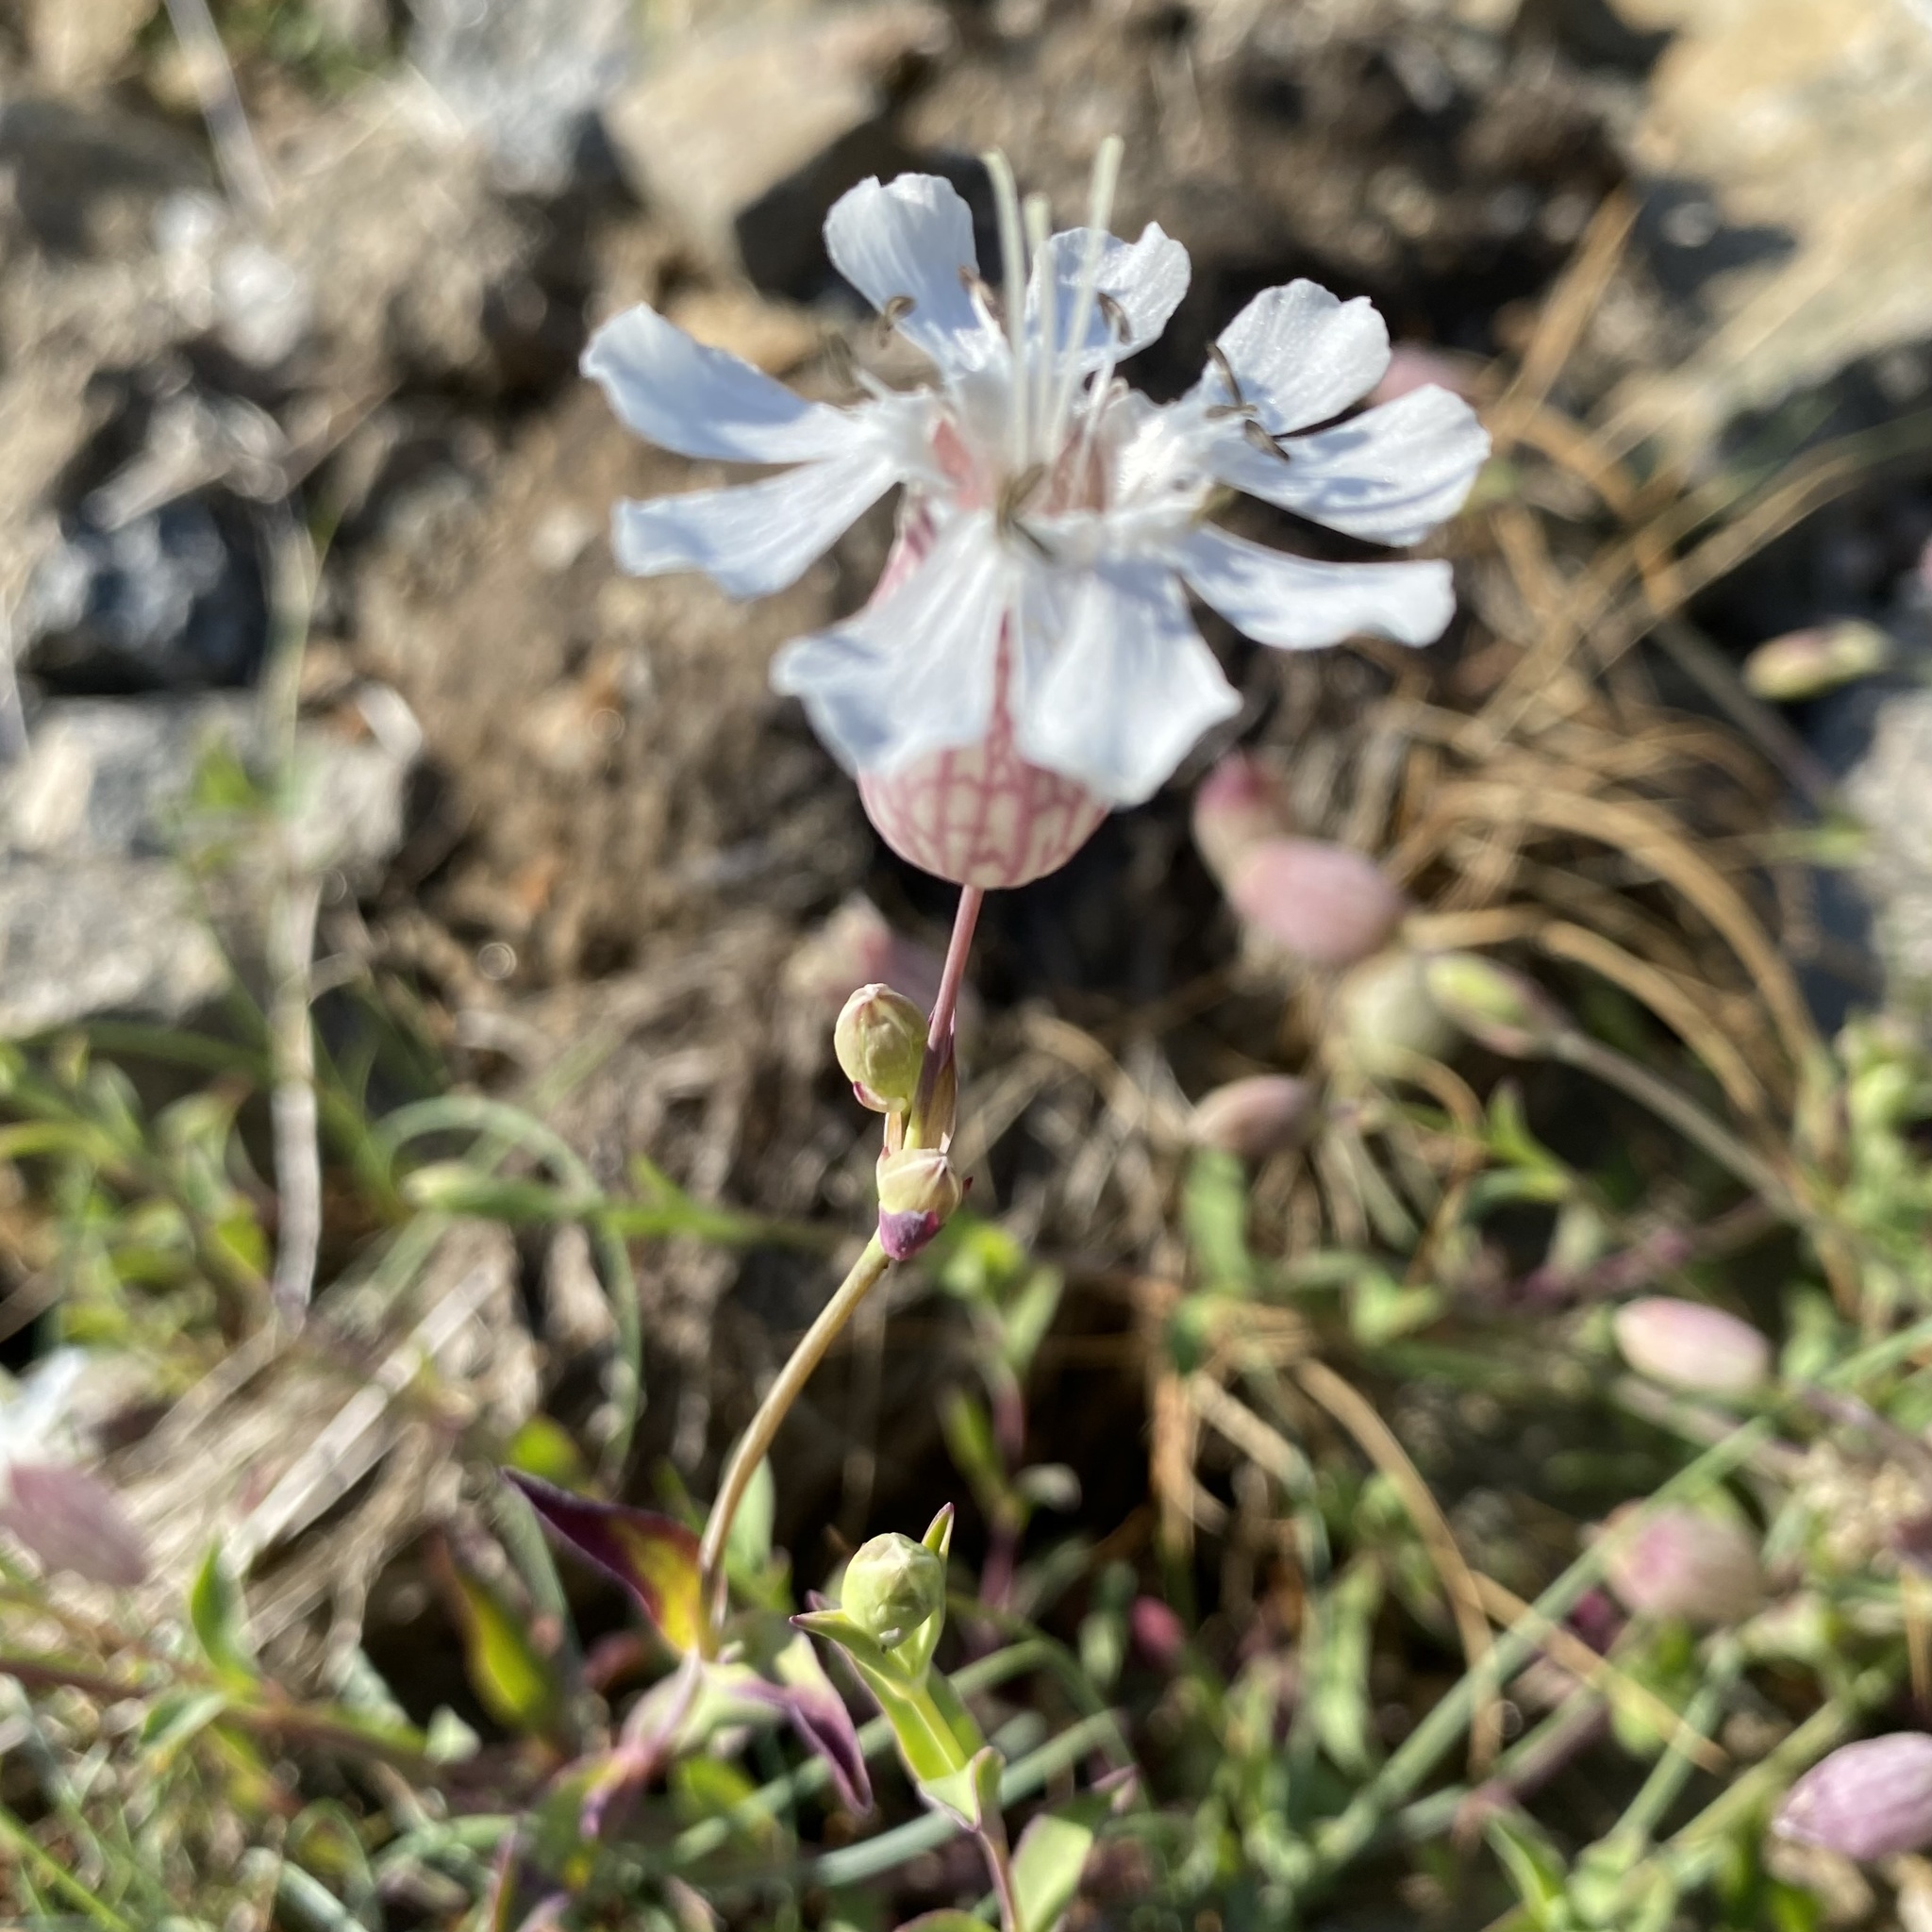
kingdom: Plantae
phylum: Tracheophyta
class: Magnoliopsida
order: Caryophyllales
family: Caryophyllaceae
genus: Silene
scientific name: Silene uniflora
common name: Sea campion
